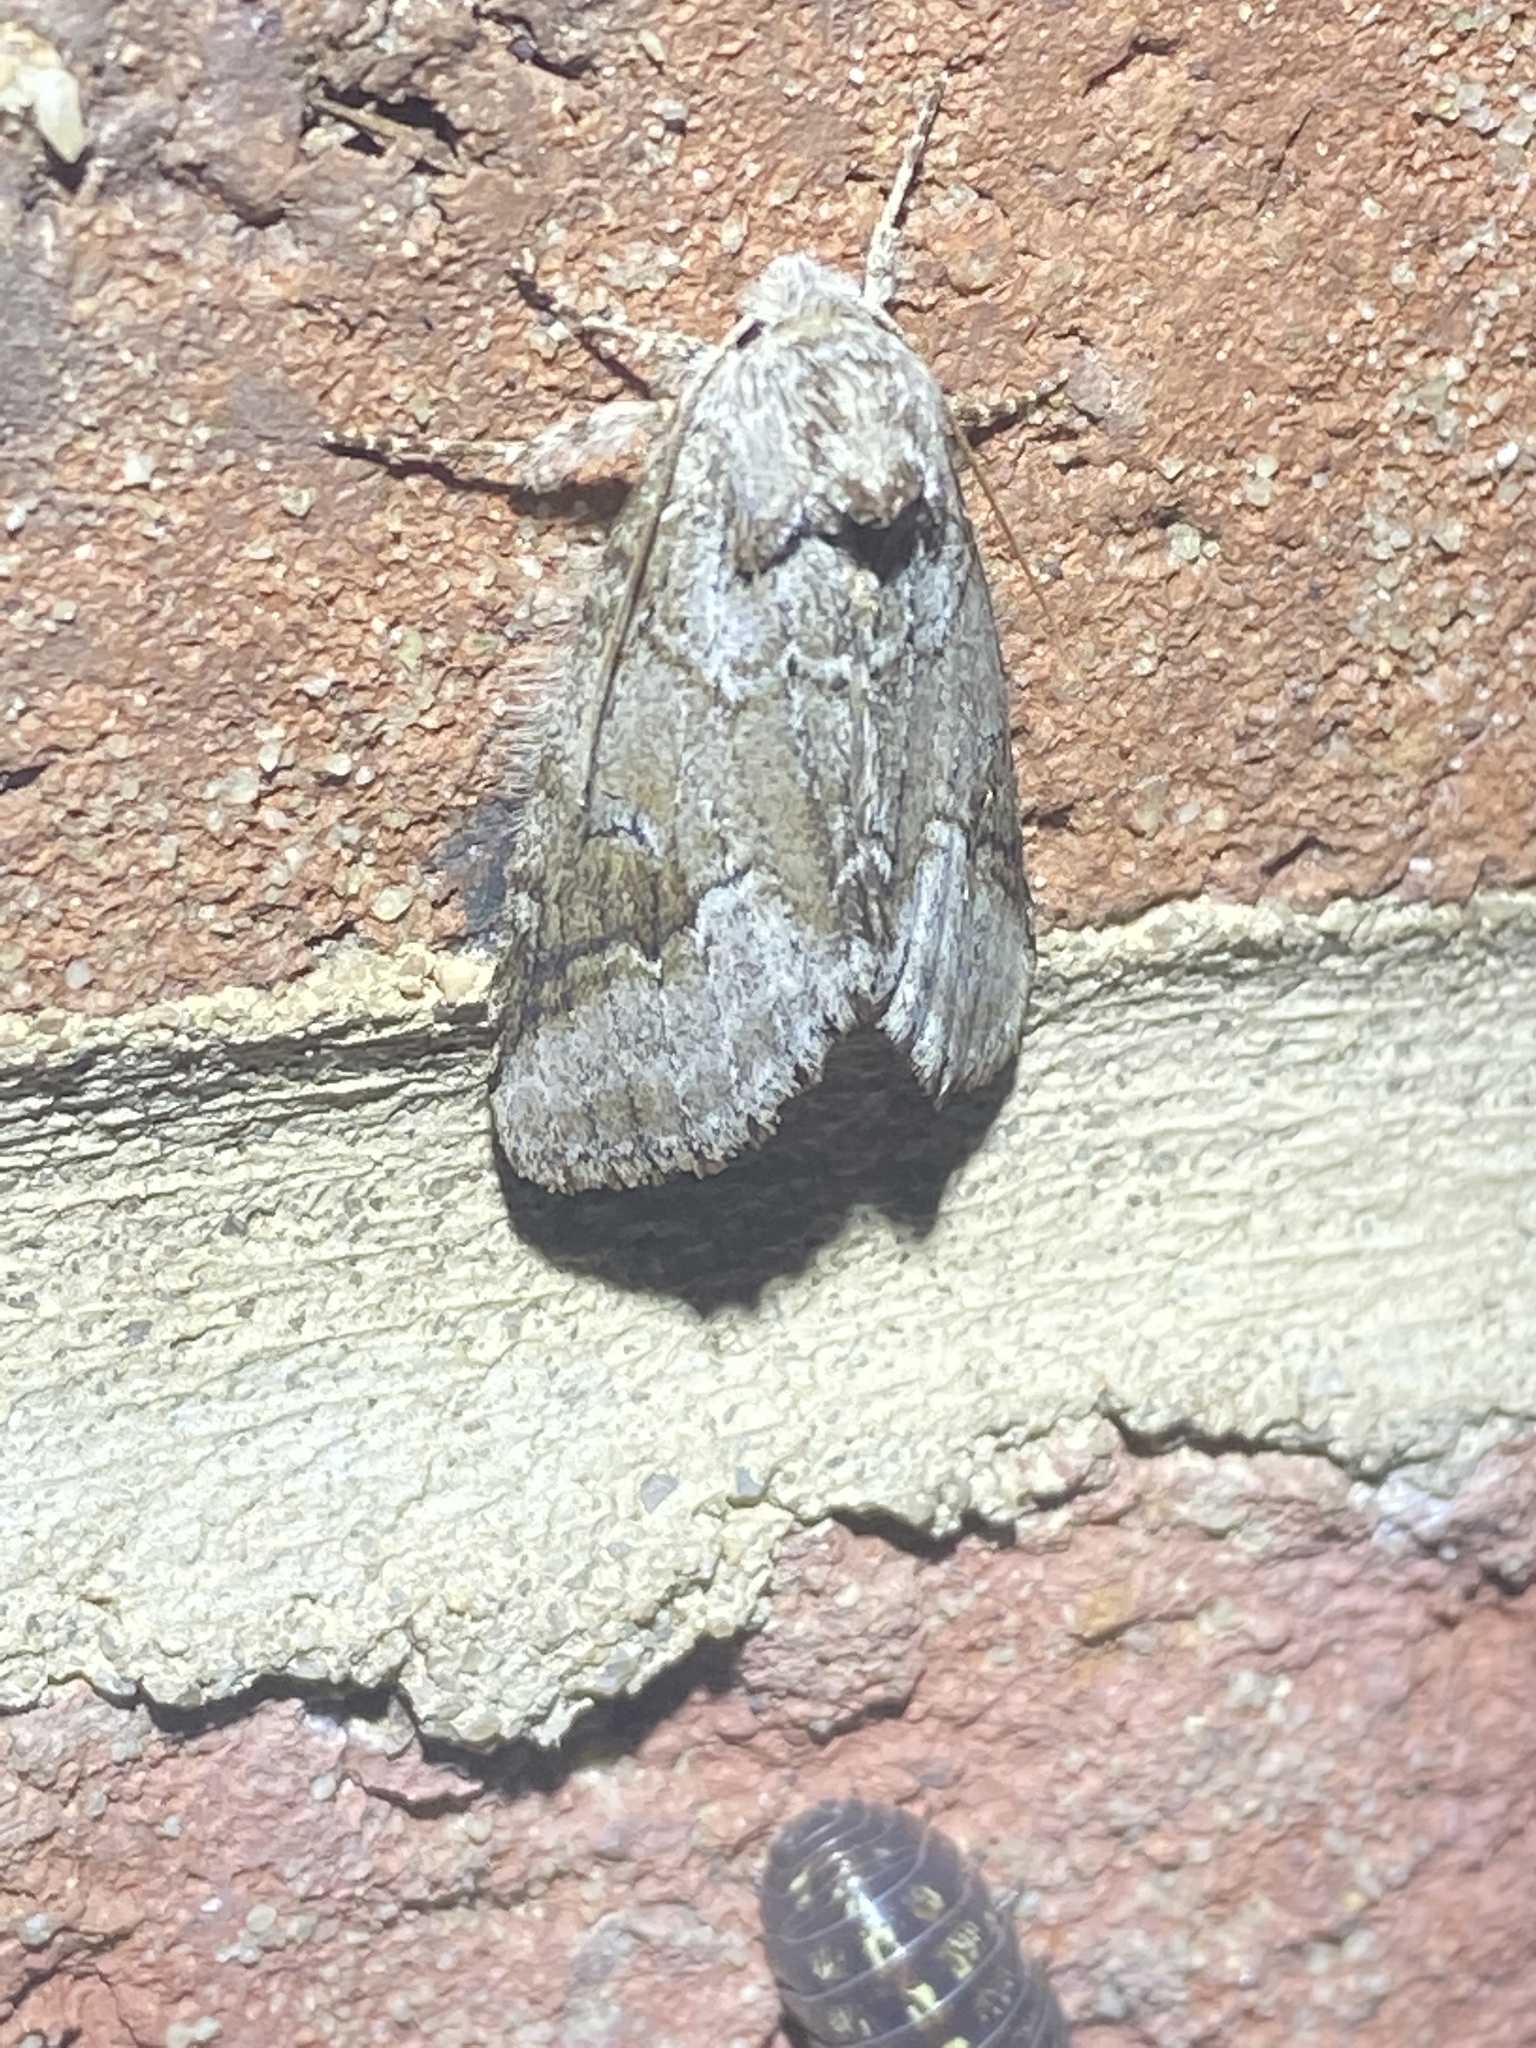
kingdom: Animalia
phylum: Arthropoda
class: Insecta
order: Lepidoptera
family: Notodontidae
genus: Lochmaeus
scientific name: Lochmaeus bilineata
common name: Double-lined prominent
